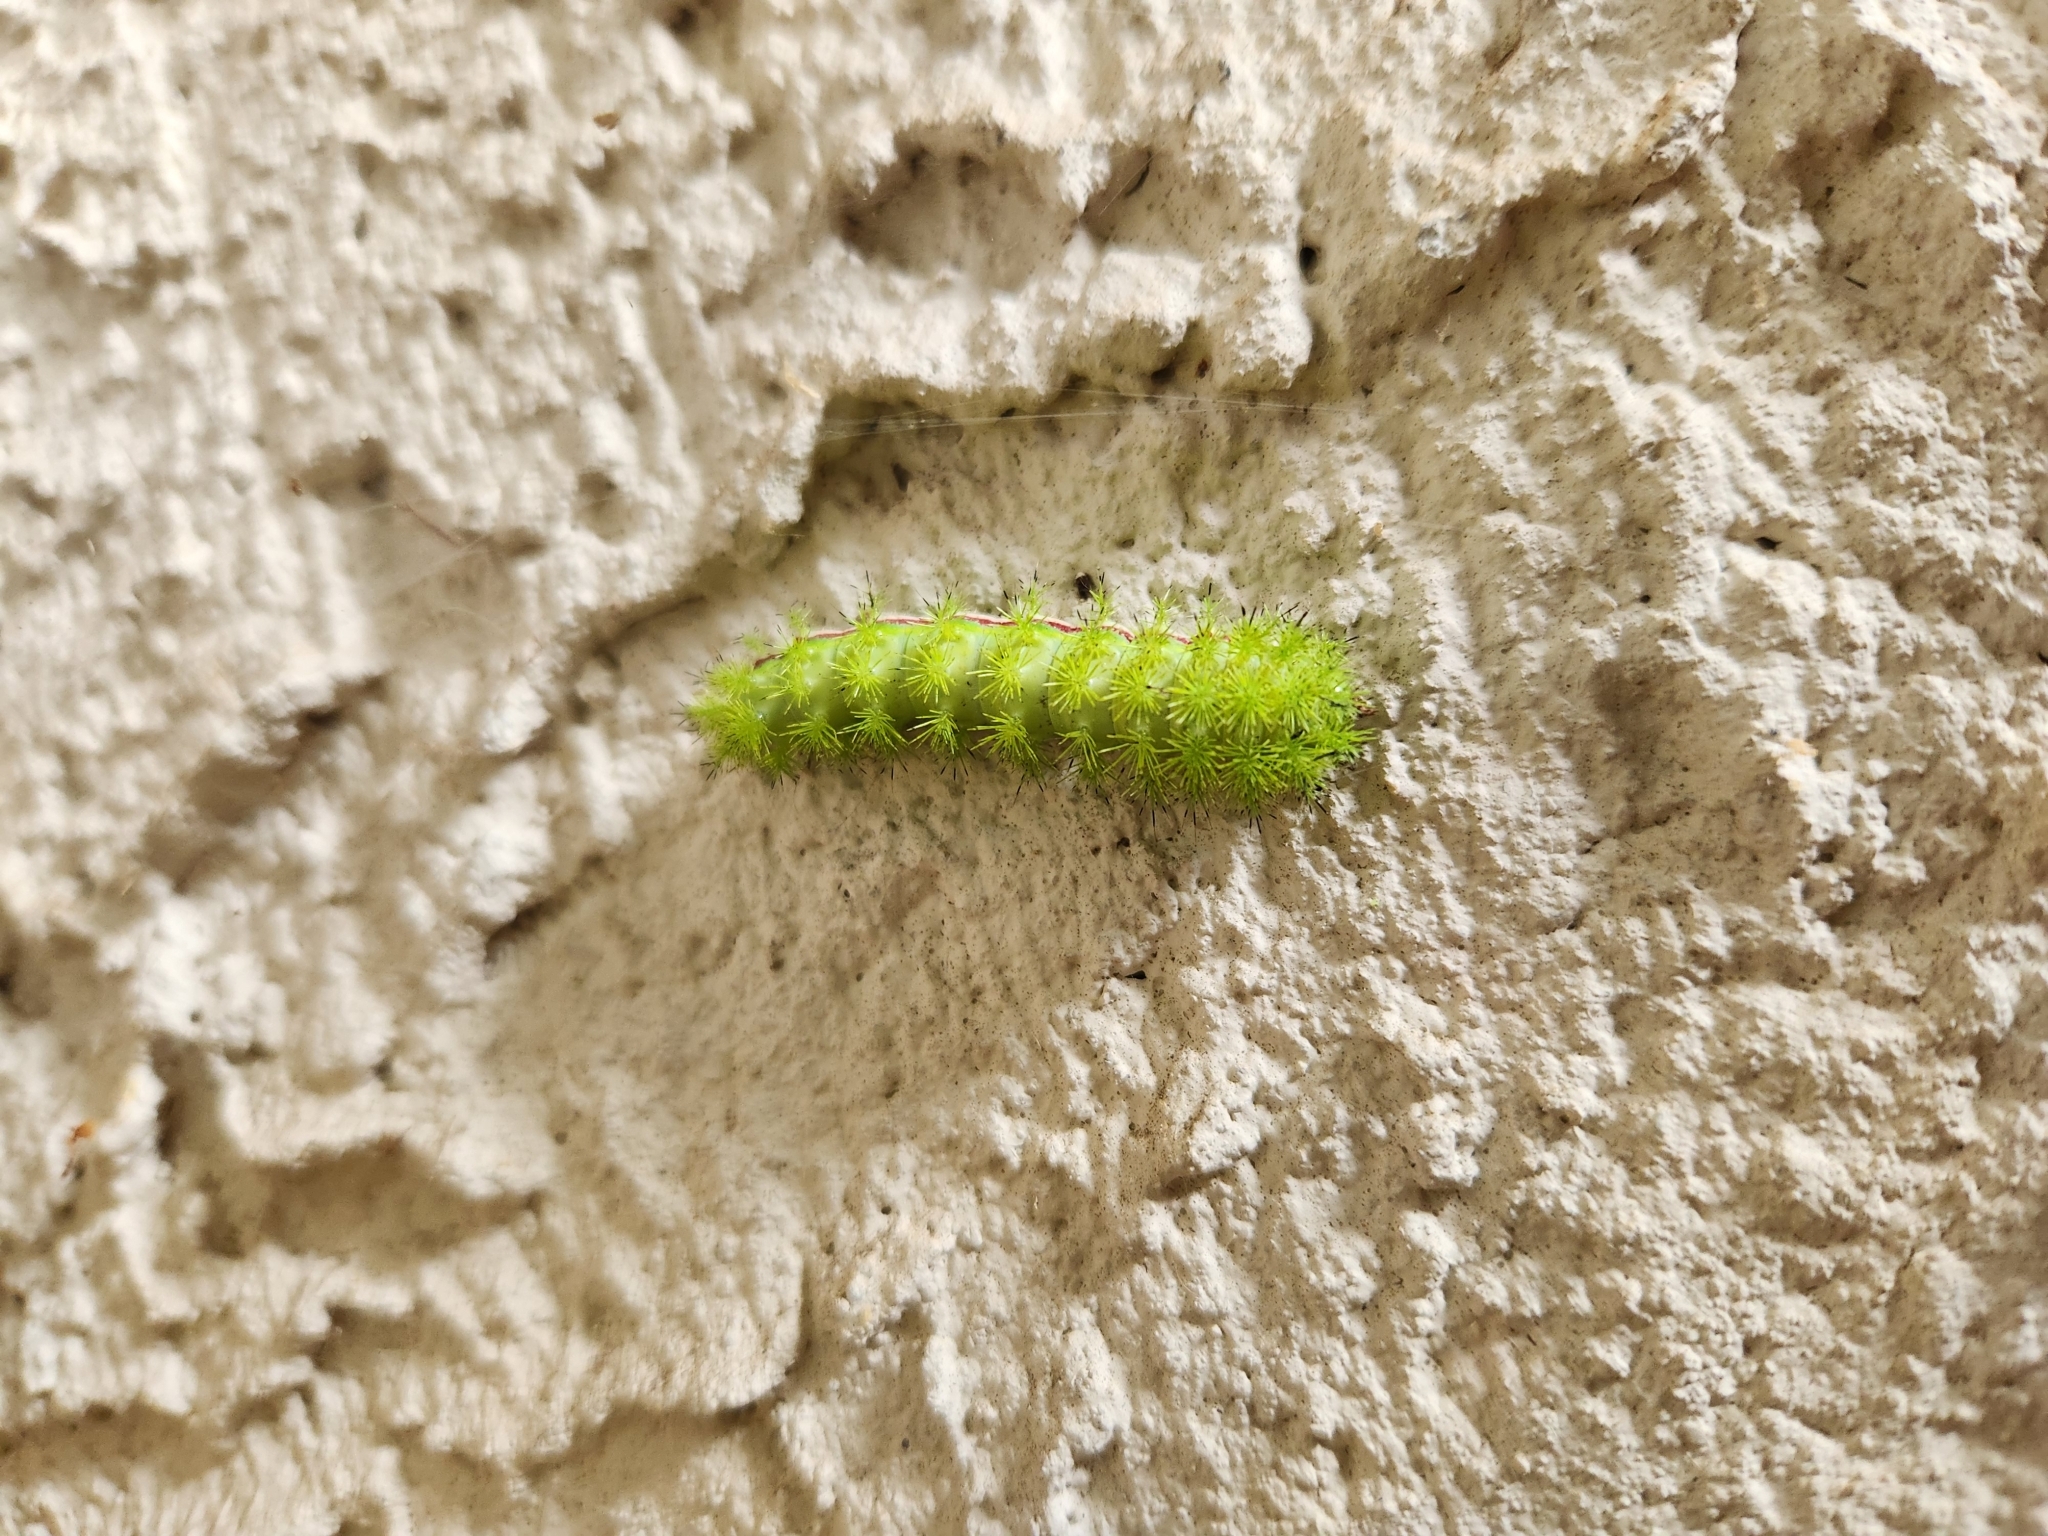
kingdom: Animalia
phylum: Arthropoda
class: Insecta
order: Lepidoptera
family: Saturniidae
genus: Automeris
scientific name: Automeris io
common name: Io moth
